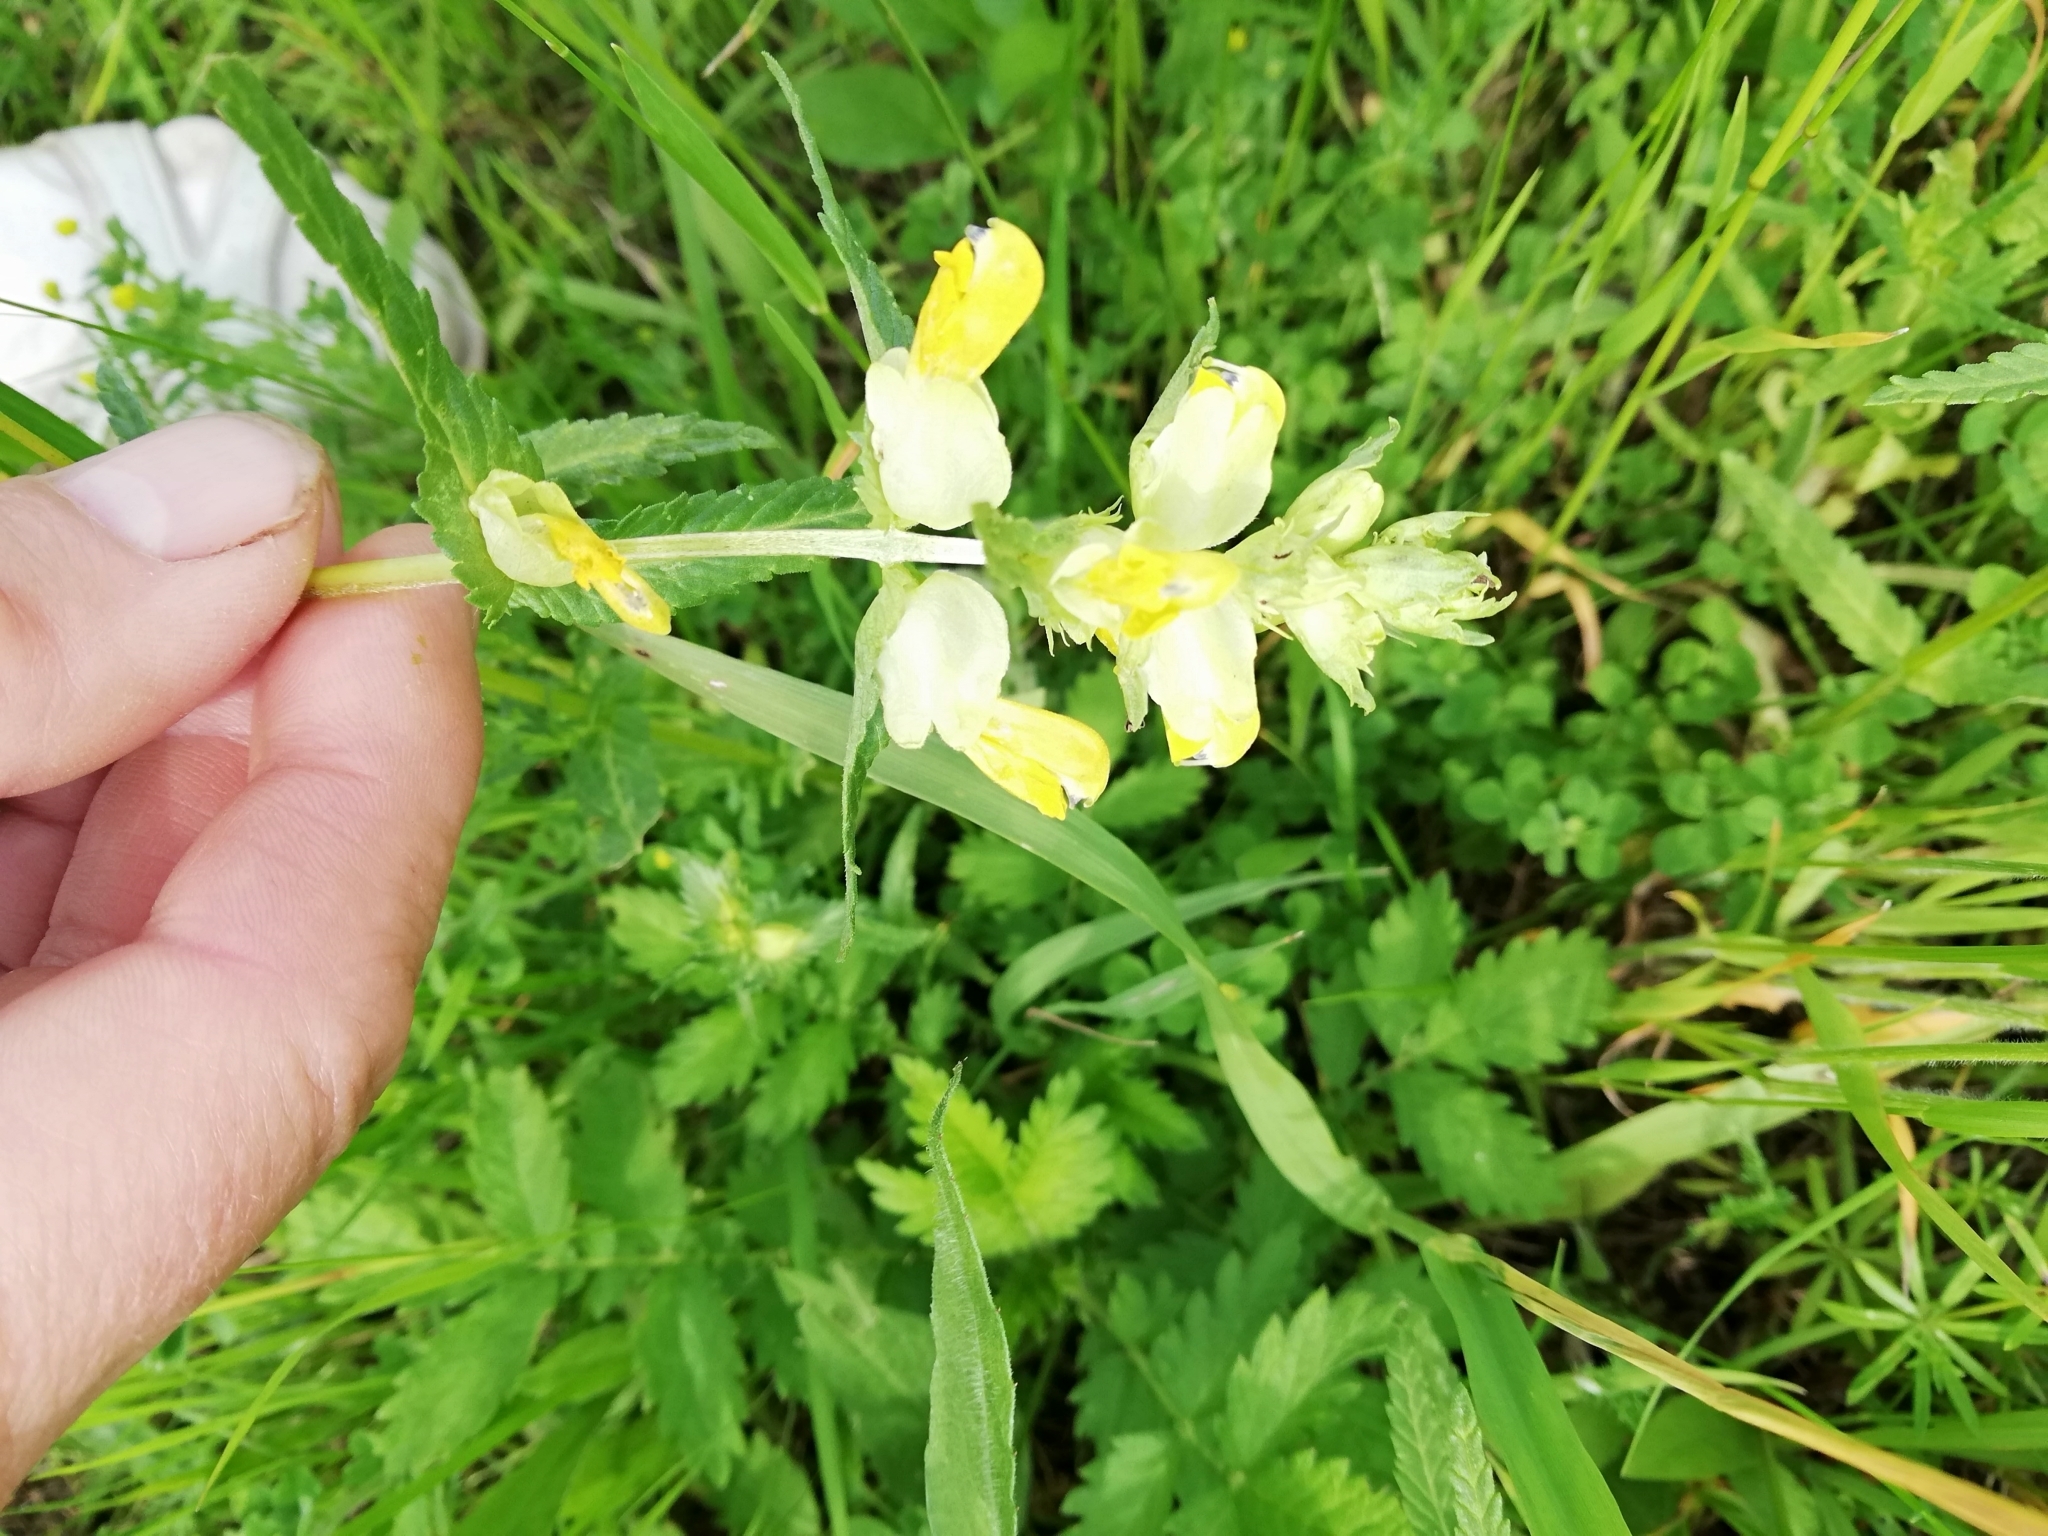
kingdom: Plantae
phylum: Tracheophyta
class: Magnoliopsida
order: Lamiales
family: Orobanchaceae
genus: Rhinanthus
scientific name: Rhinanthus serotinus
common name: Late-flowering yellow rattle
